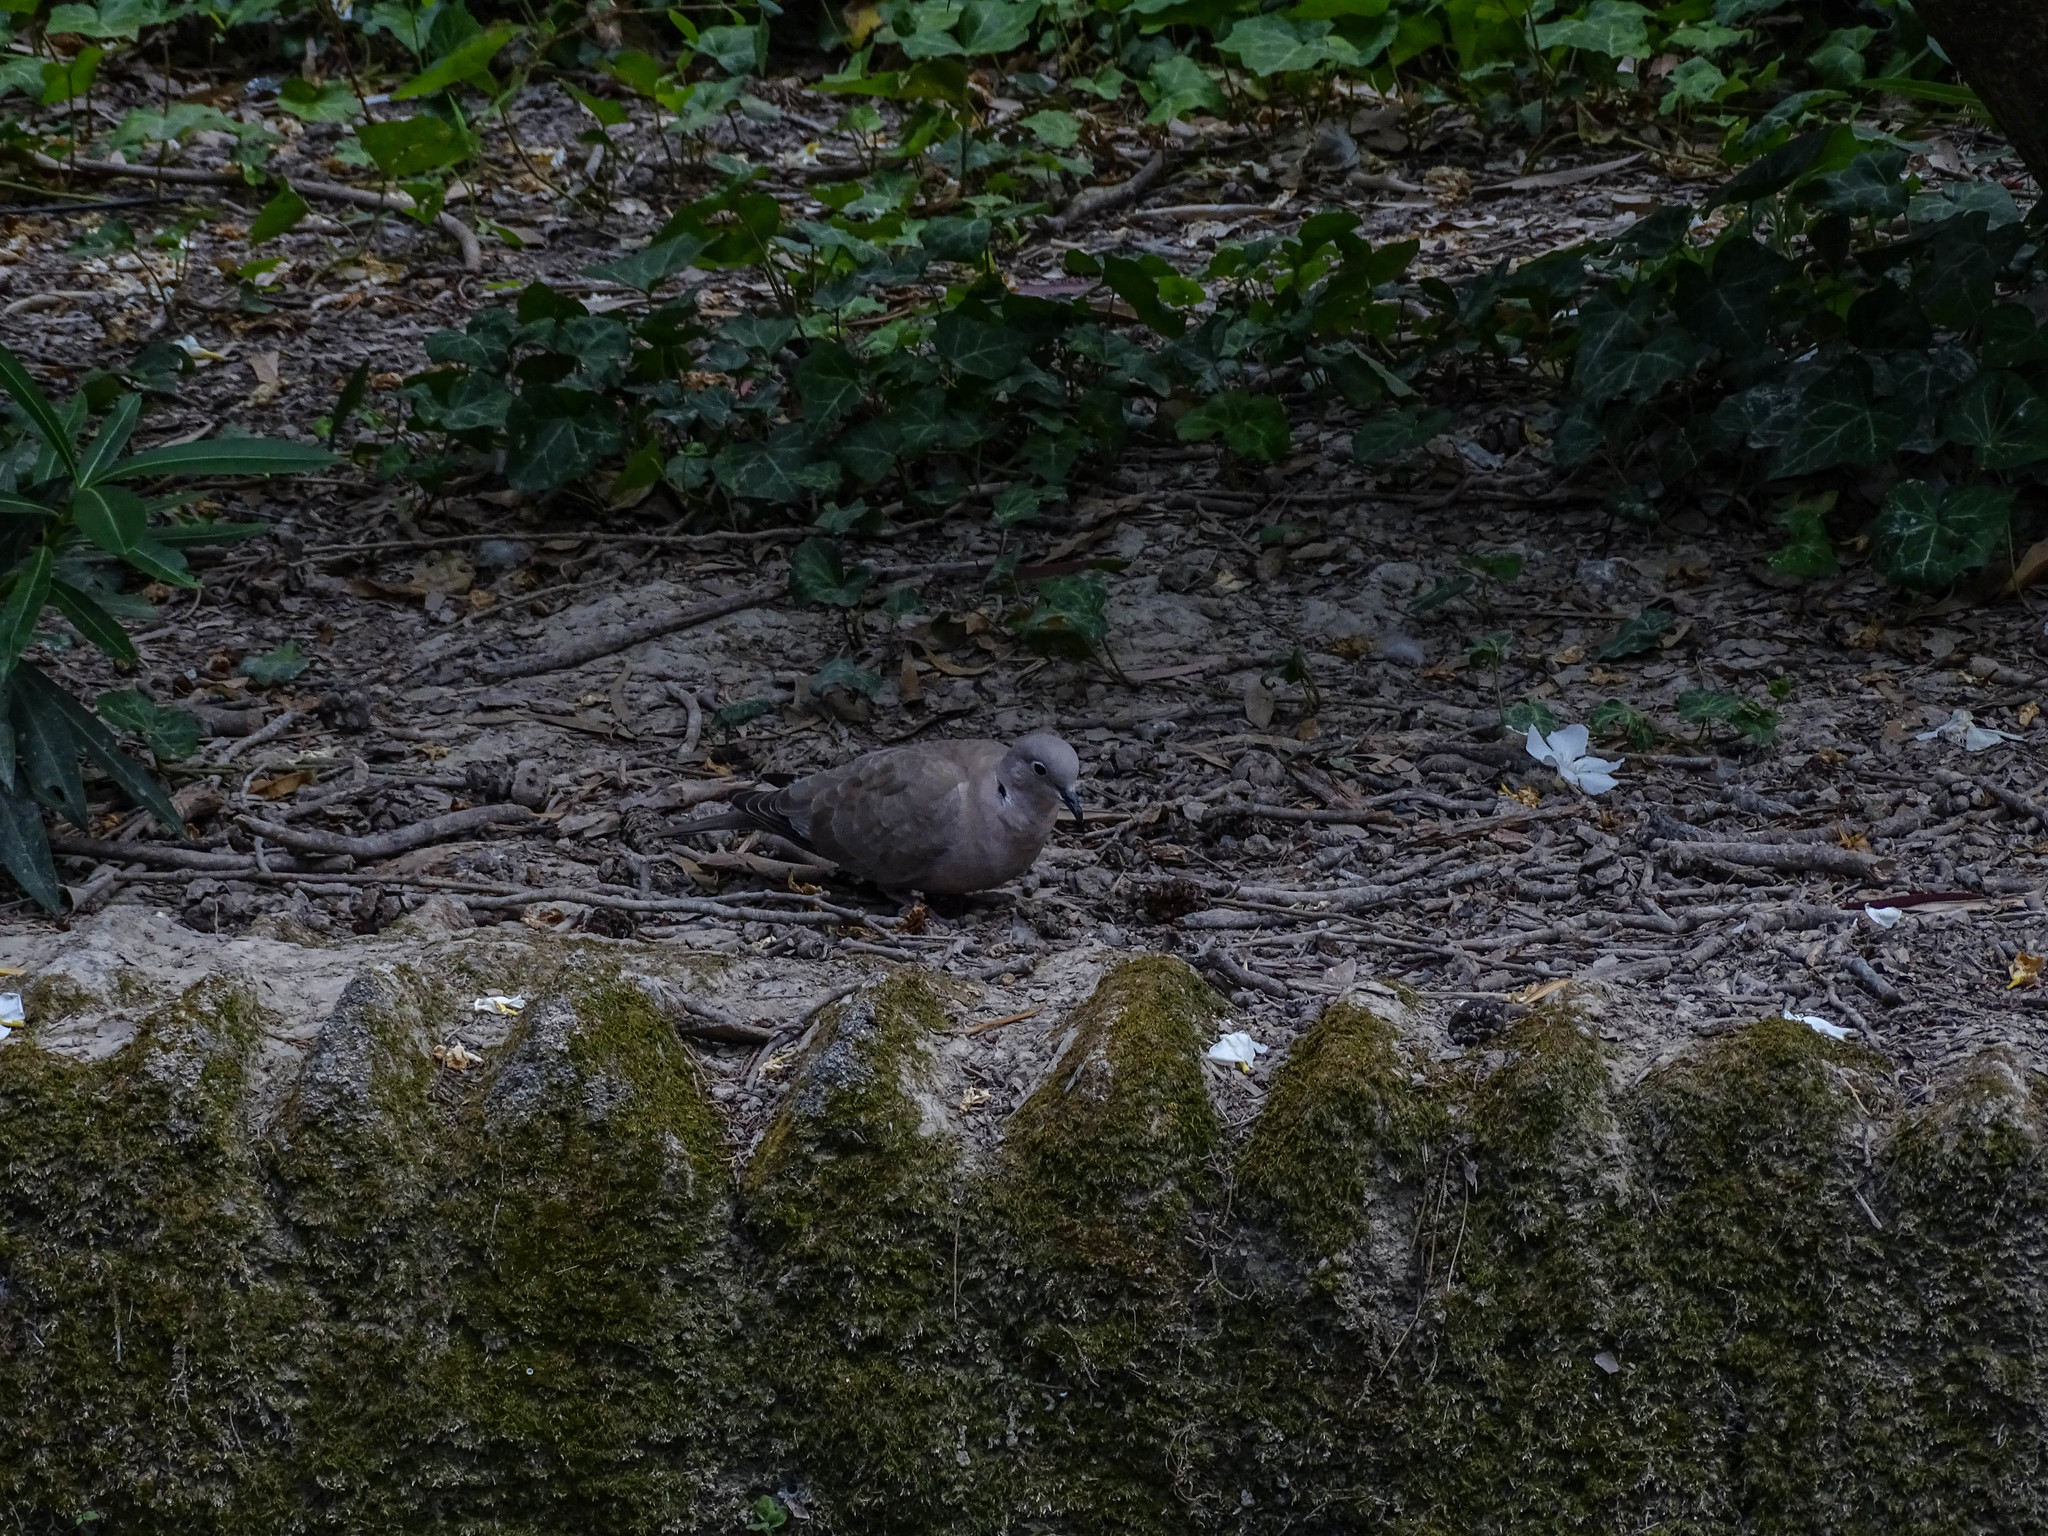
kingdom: Animalia
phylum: Chordata
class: Aves
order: Columbiformes
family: Columbidae
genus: Streptopelia
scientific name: Streptopelia decaocto
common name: Eurasian collared dove
